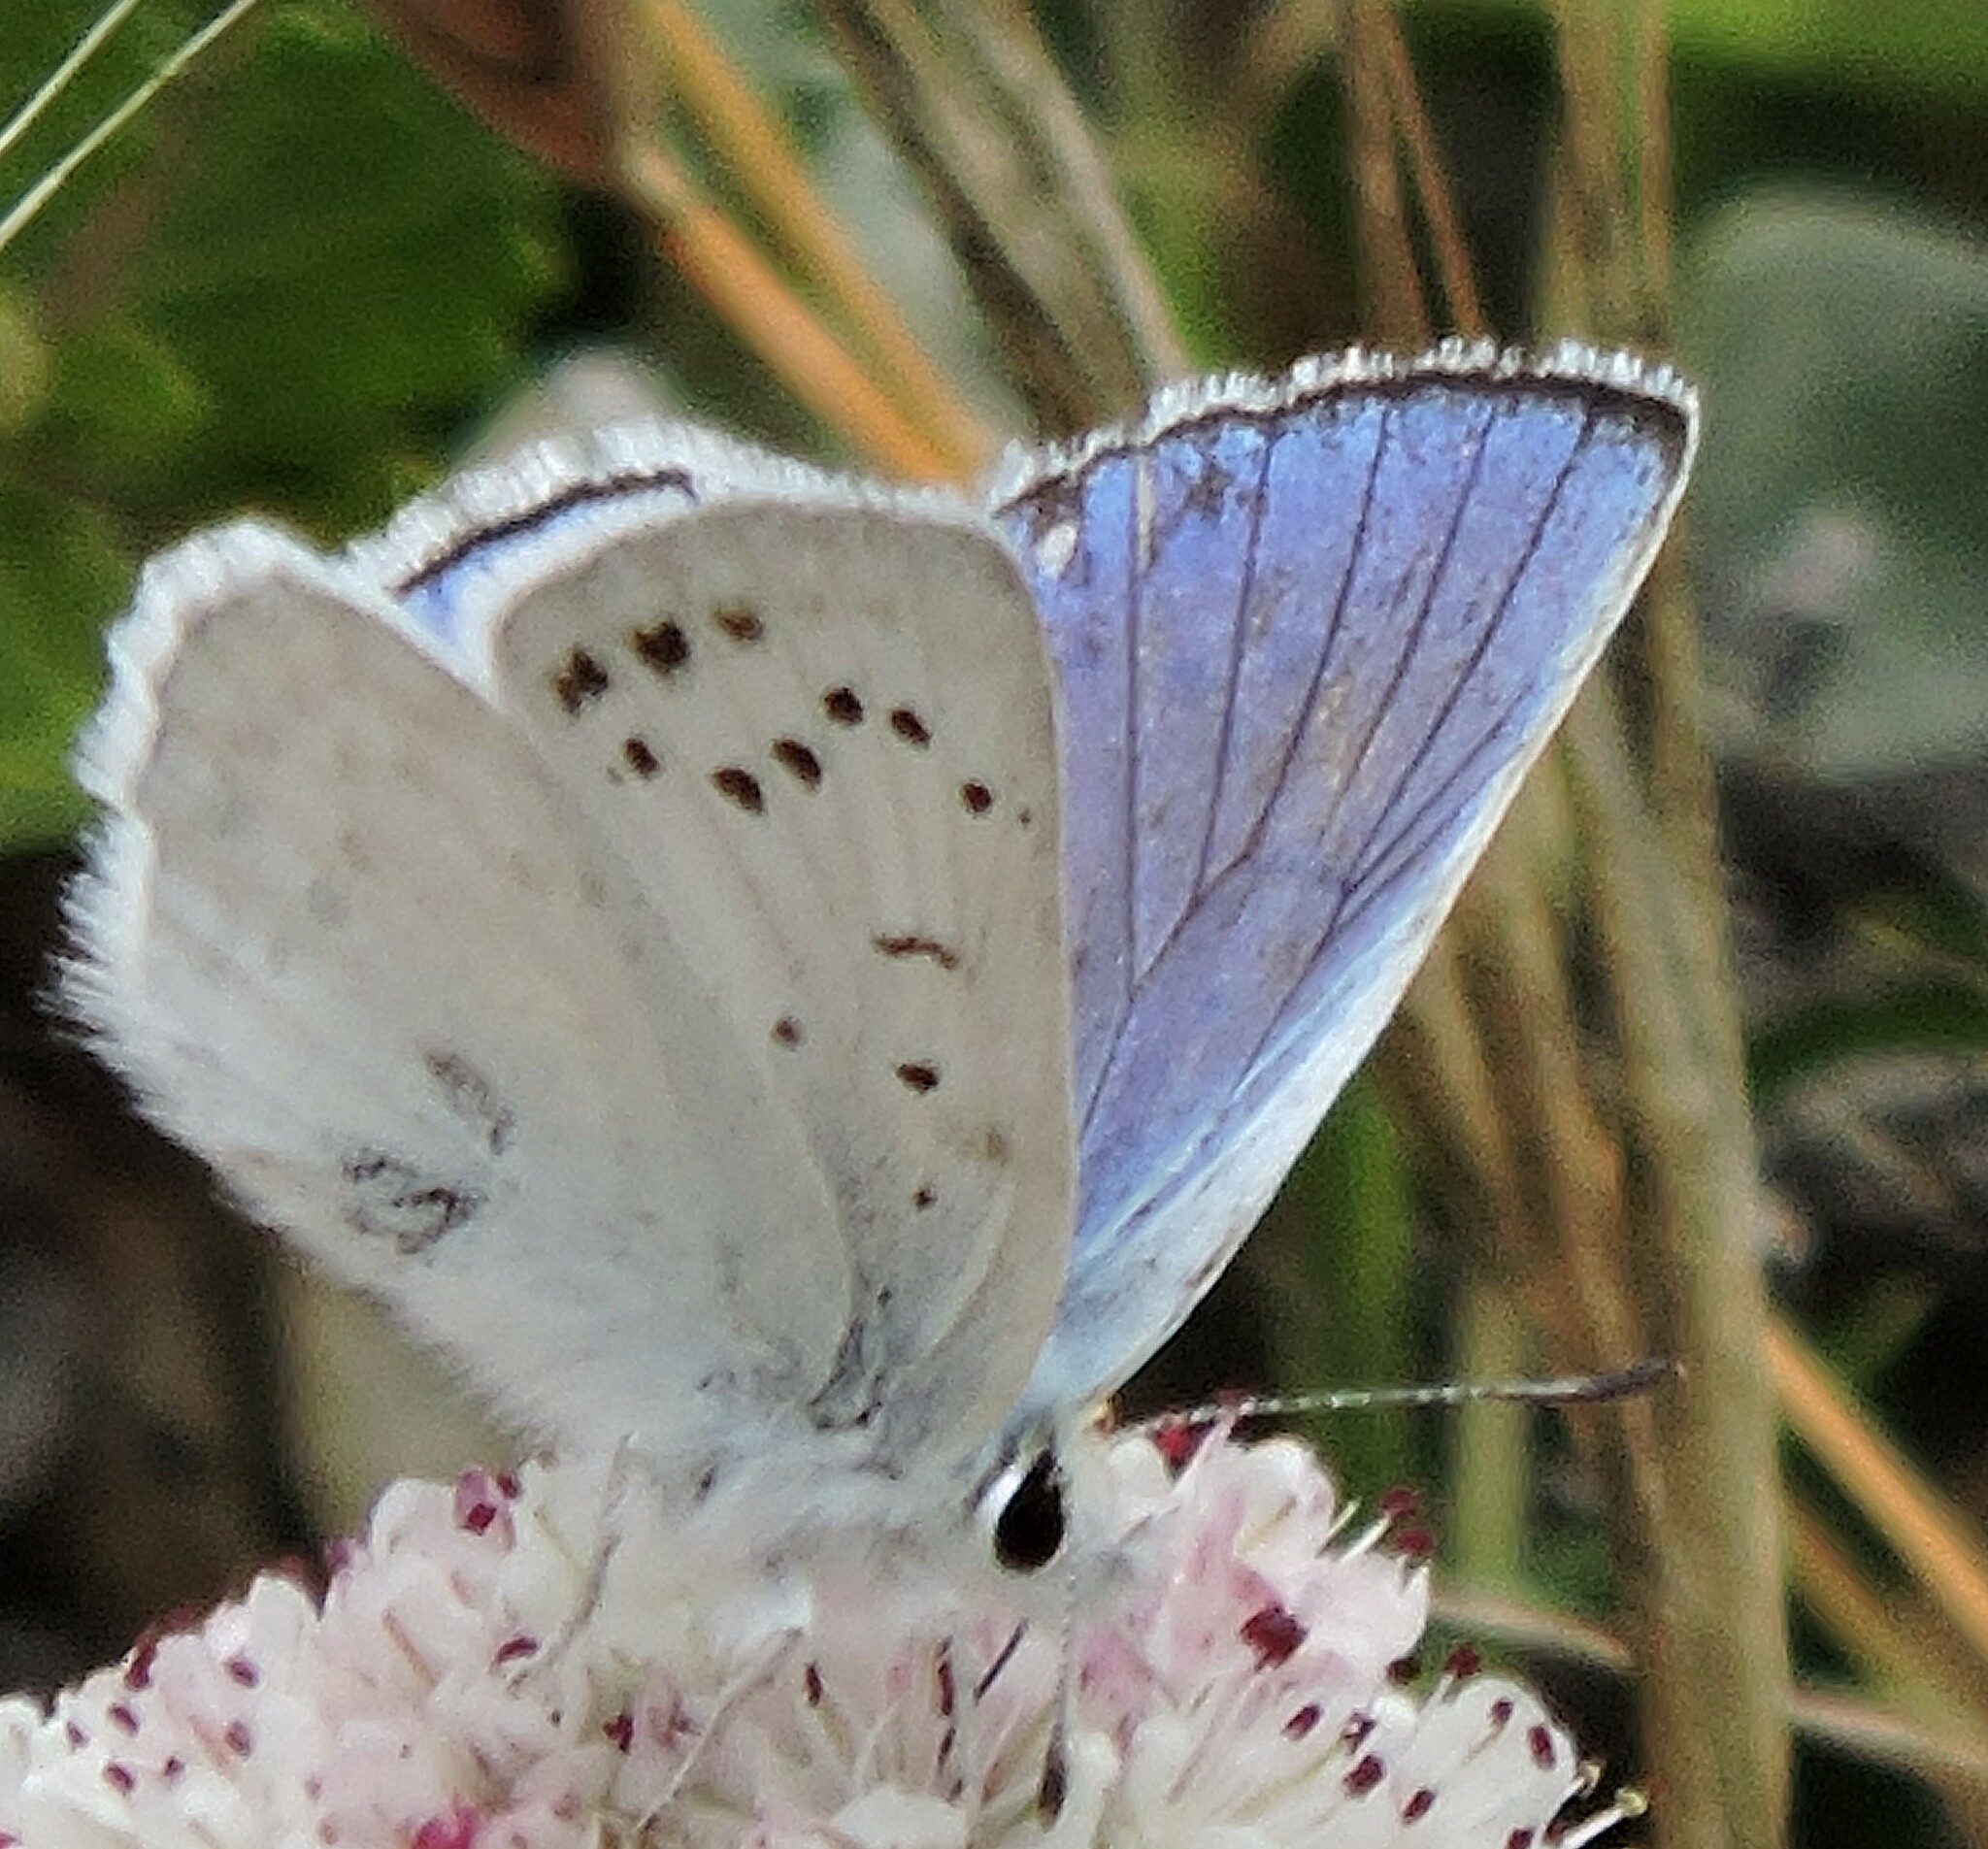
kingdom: Animalia
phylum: Arthropoda
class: Insecta
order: Lepidoptera
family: Lycaenidae
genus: Tharsalea
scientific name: Tharsalea heteronea
